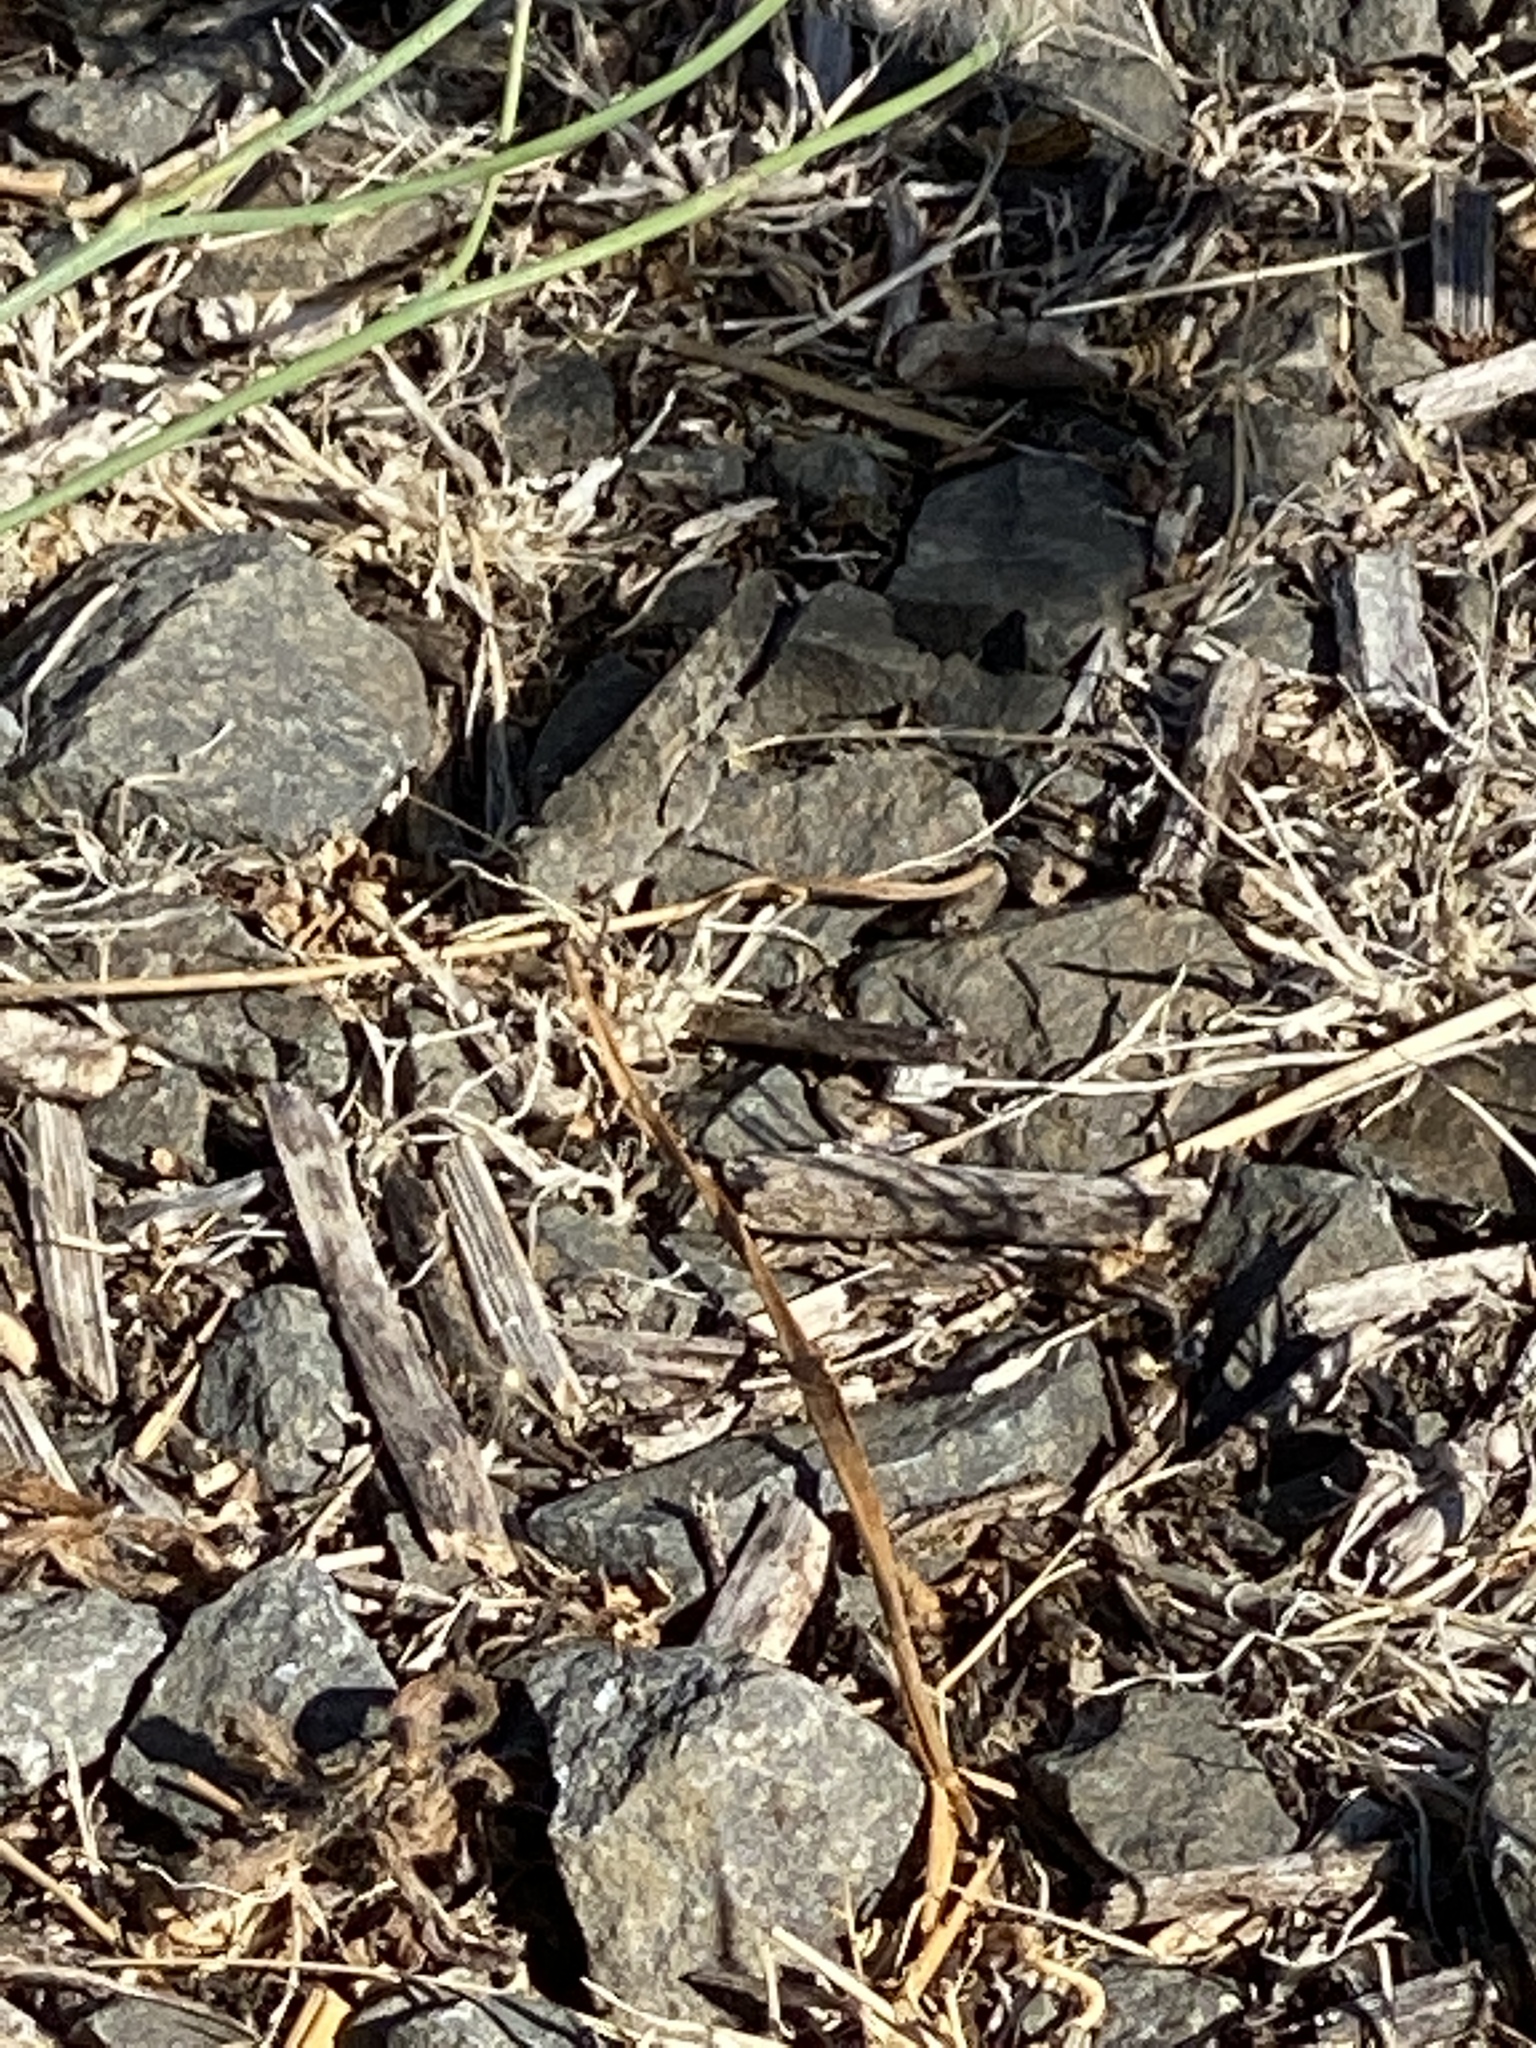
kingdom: Animalia
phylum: Arthropoda
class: Insecta
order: Orthoptera
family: Acrididae
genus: Dissosteira
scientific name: Dissosteira carolina
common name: Carolina grasshopper
